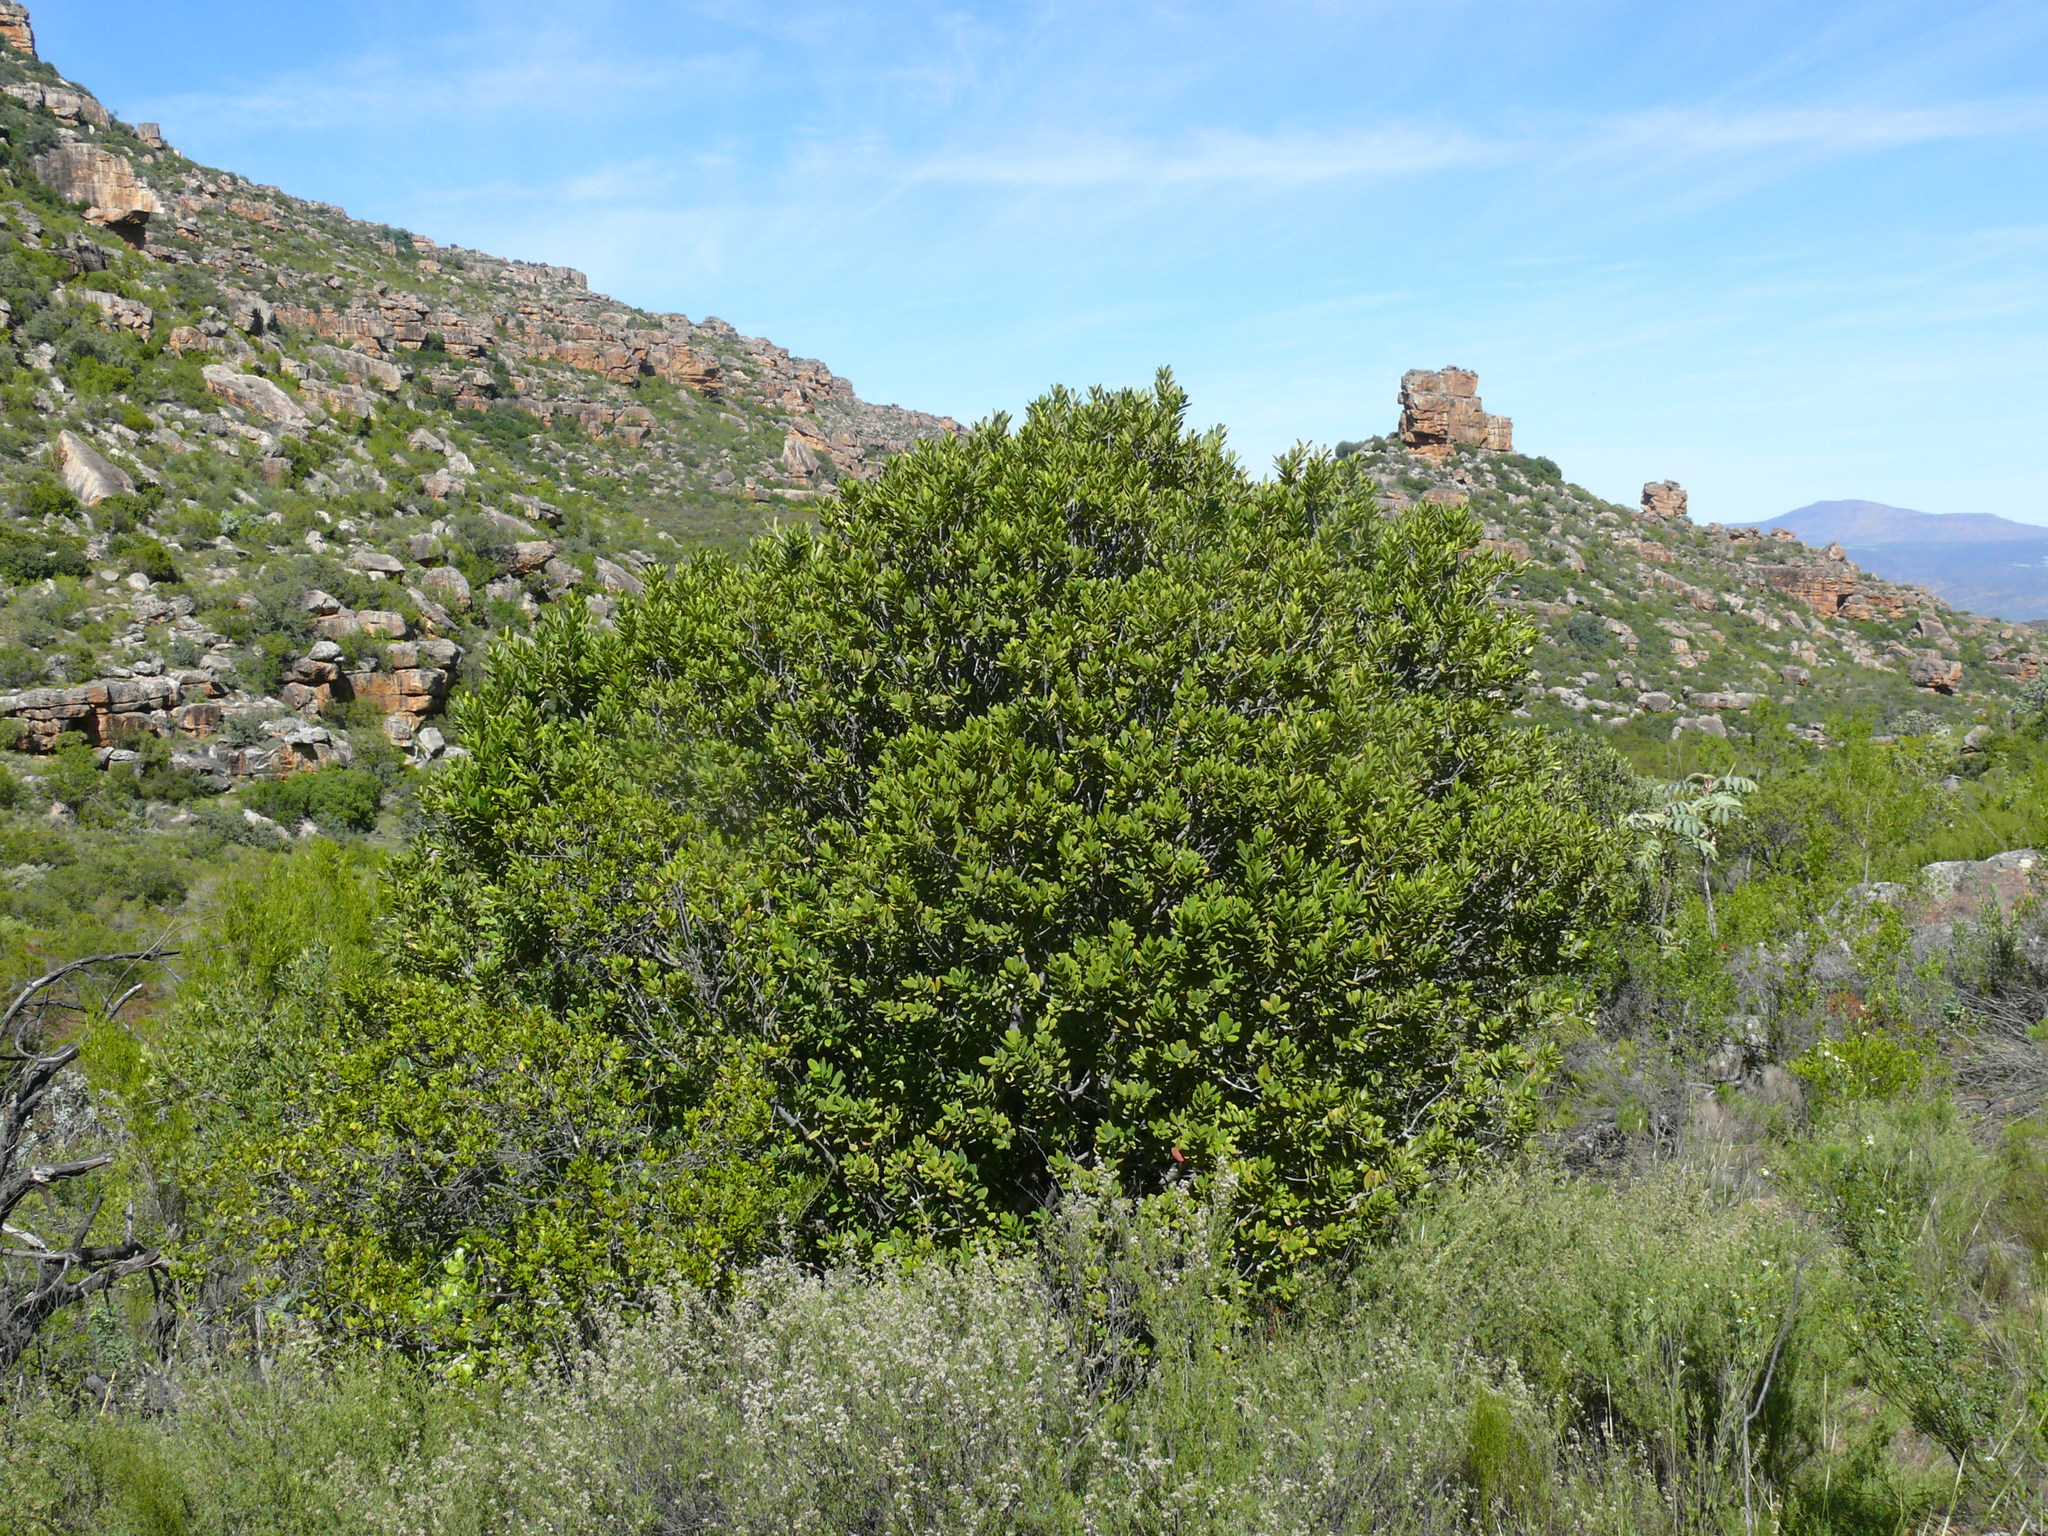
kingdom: Plantae
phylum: Tracheophyta
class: Magnoliopsida
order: Sapindales
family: Anacardiaceae
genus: Heeria
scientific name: Heeria argentea
